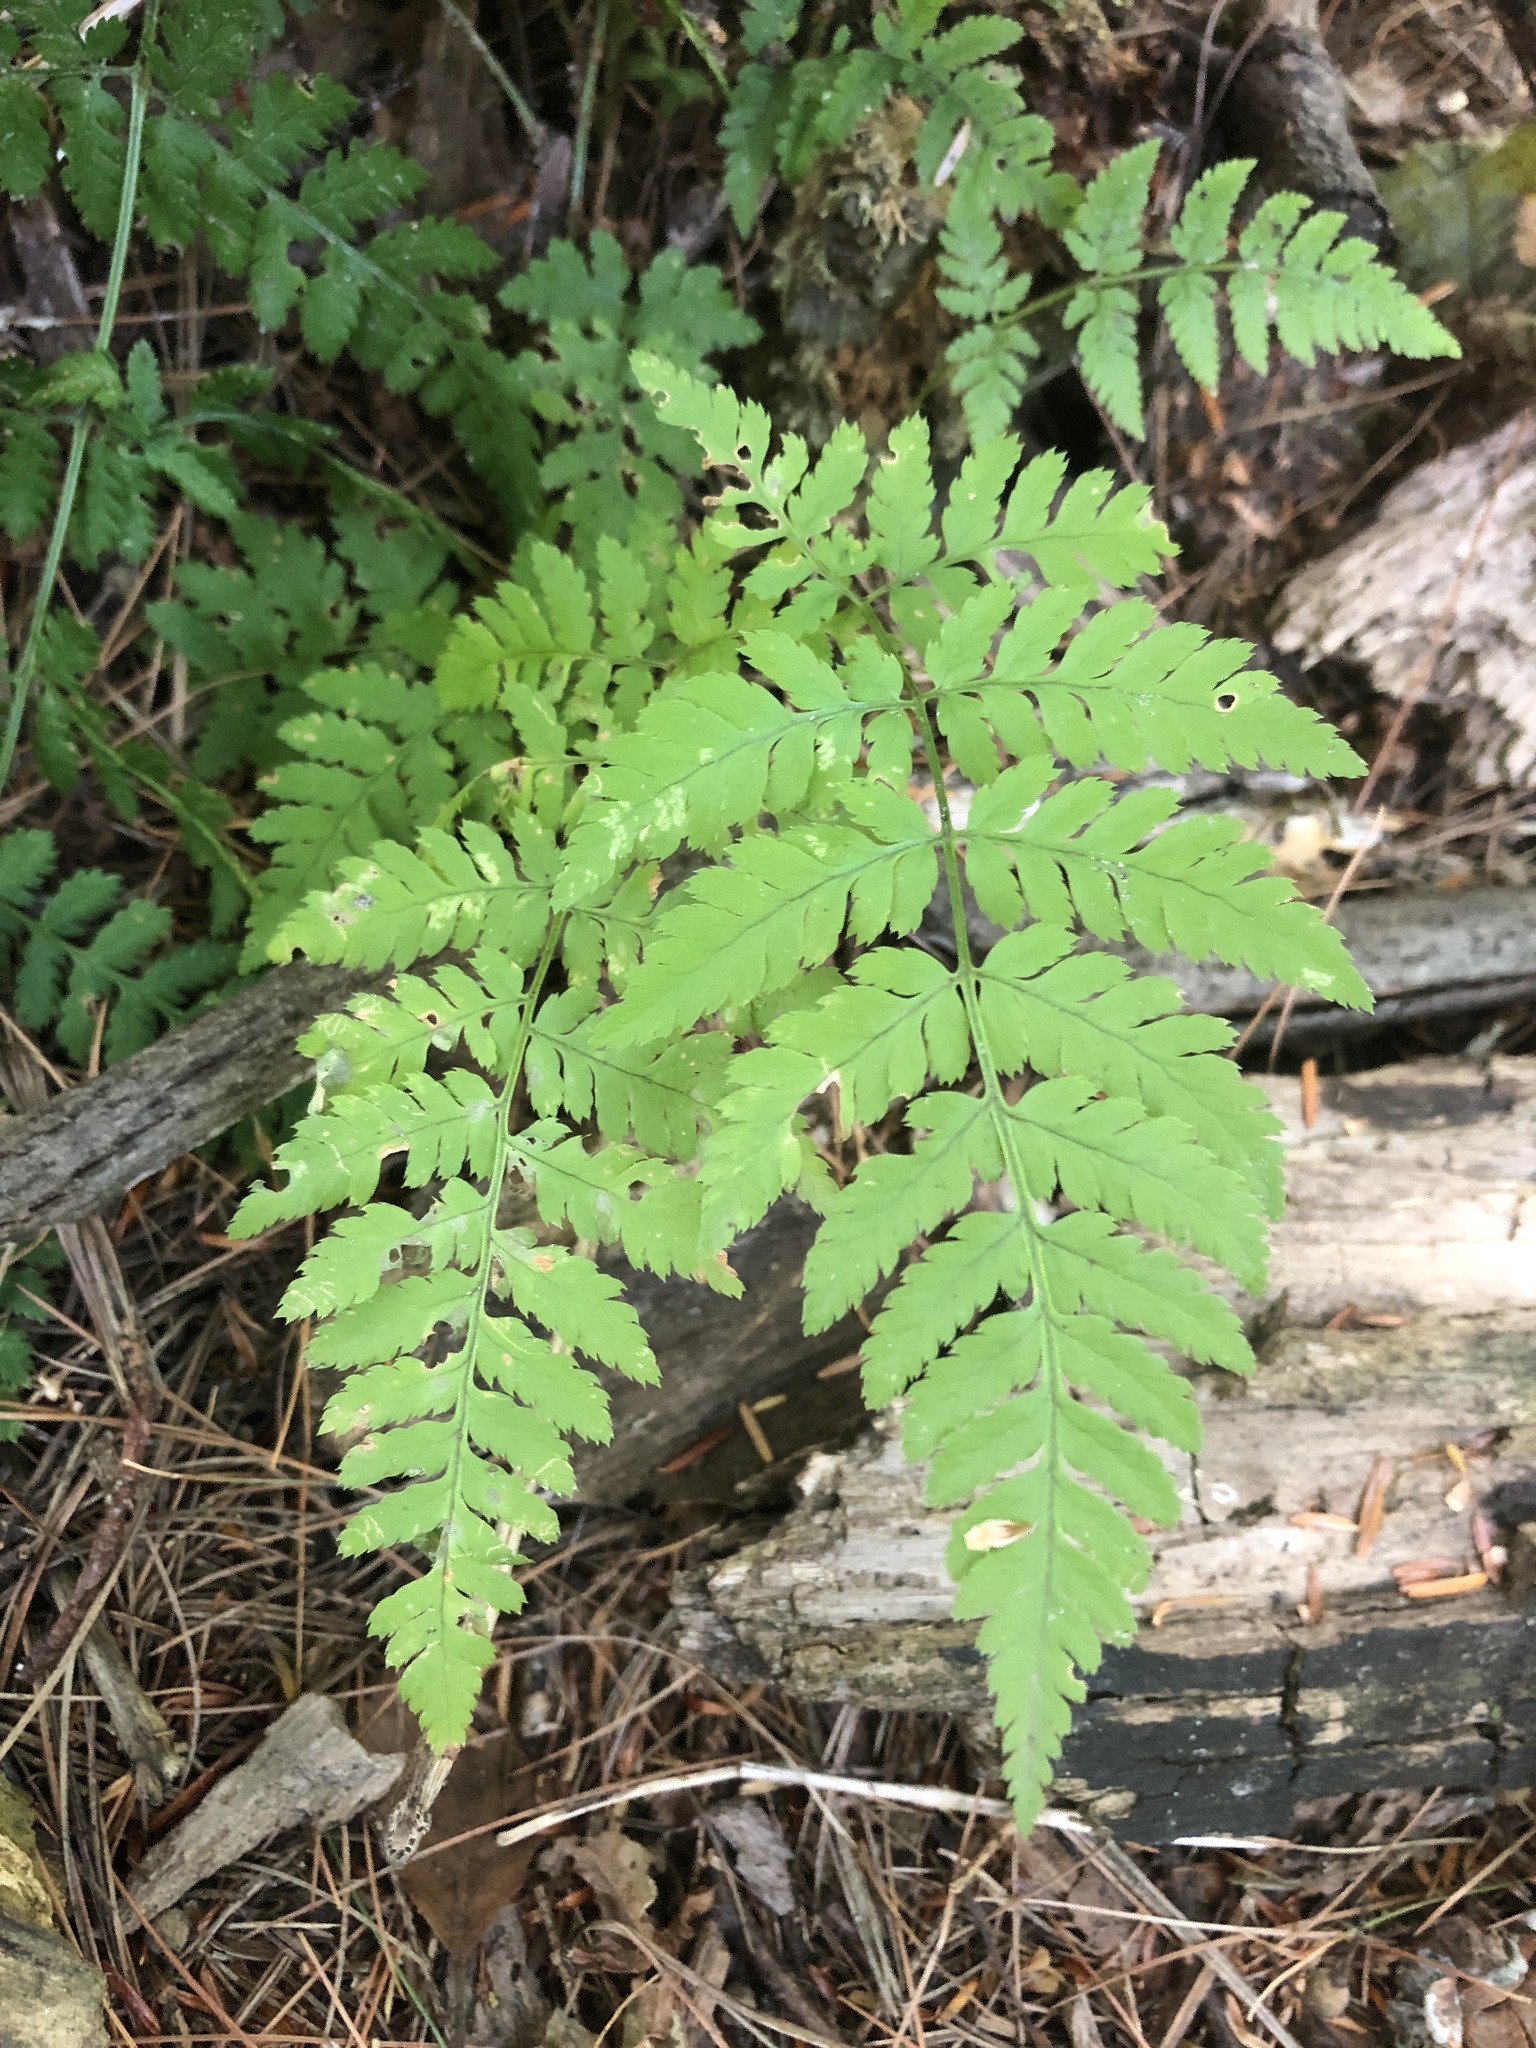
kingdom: Plantae
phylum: Tracheophyta
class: Polypodiopsida
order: Polypodiales
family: Dryopteridaceae
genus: Dryopteris
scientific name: Dryopteris carthusiana
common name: Narrow buckler-fern
